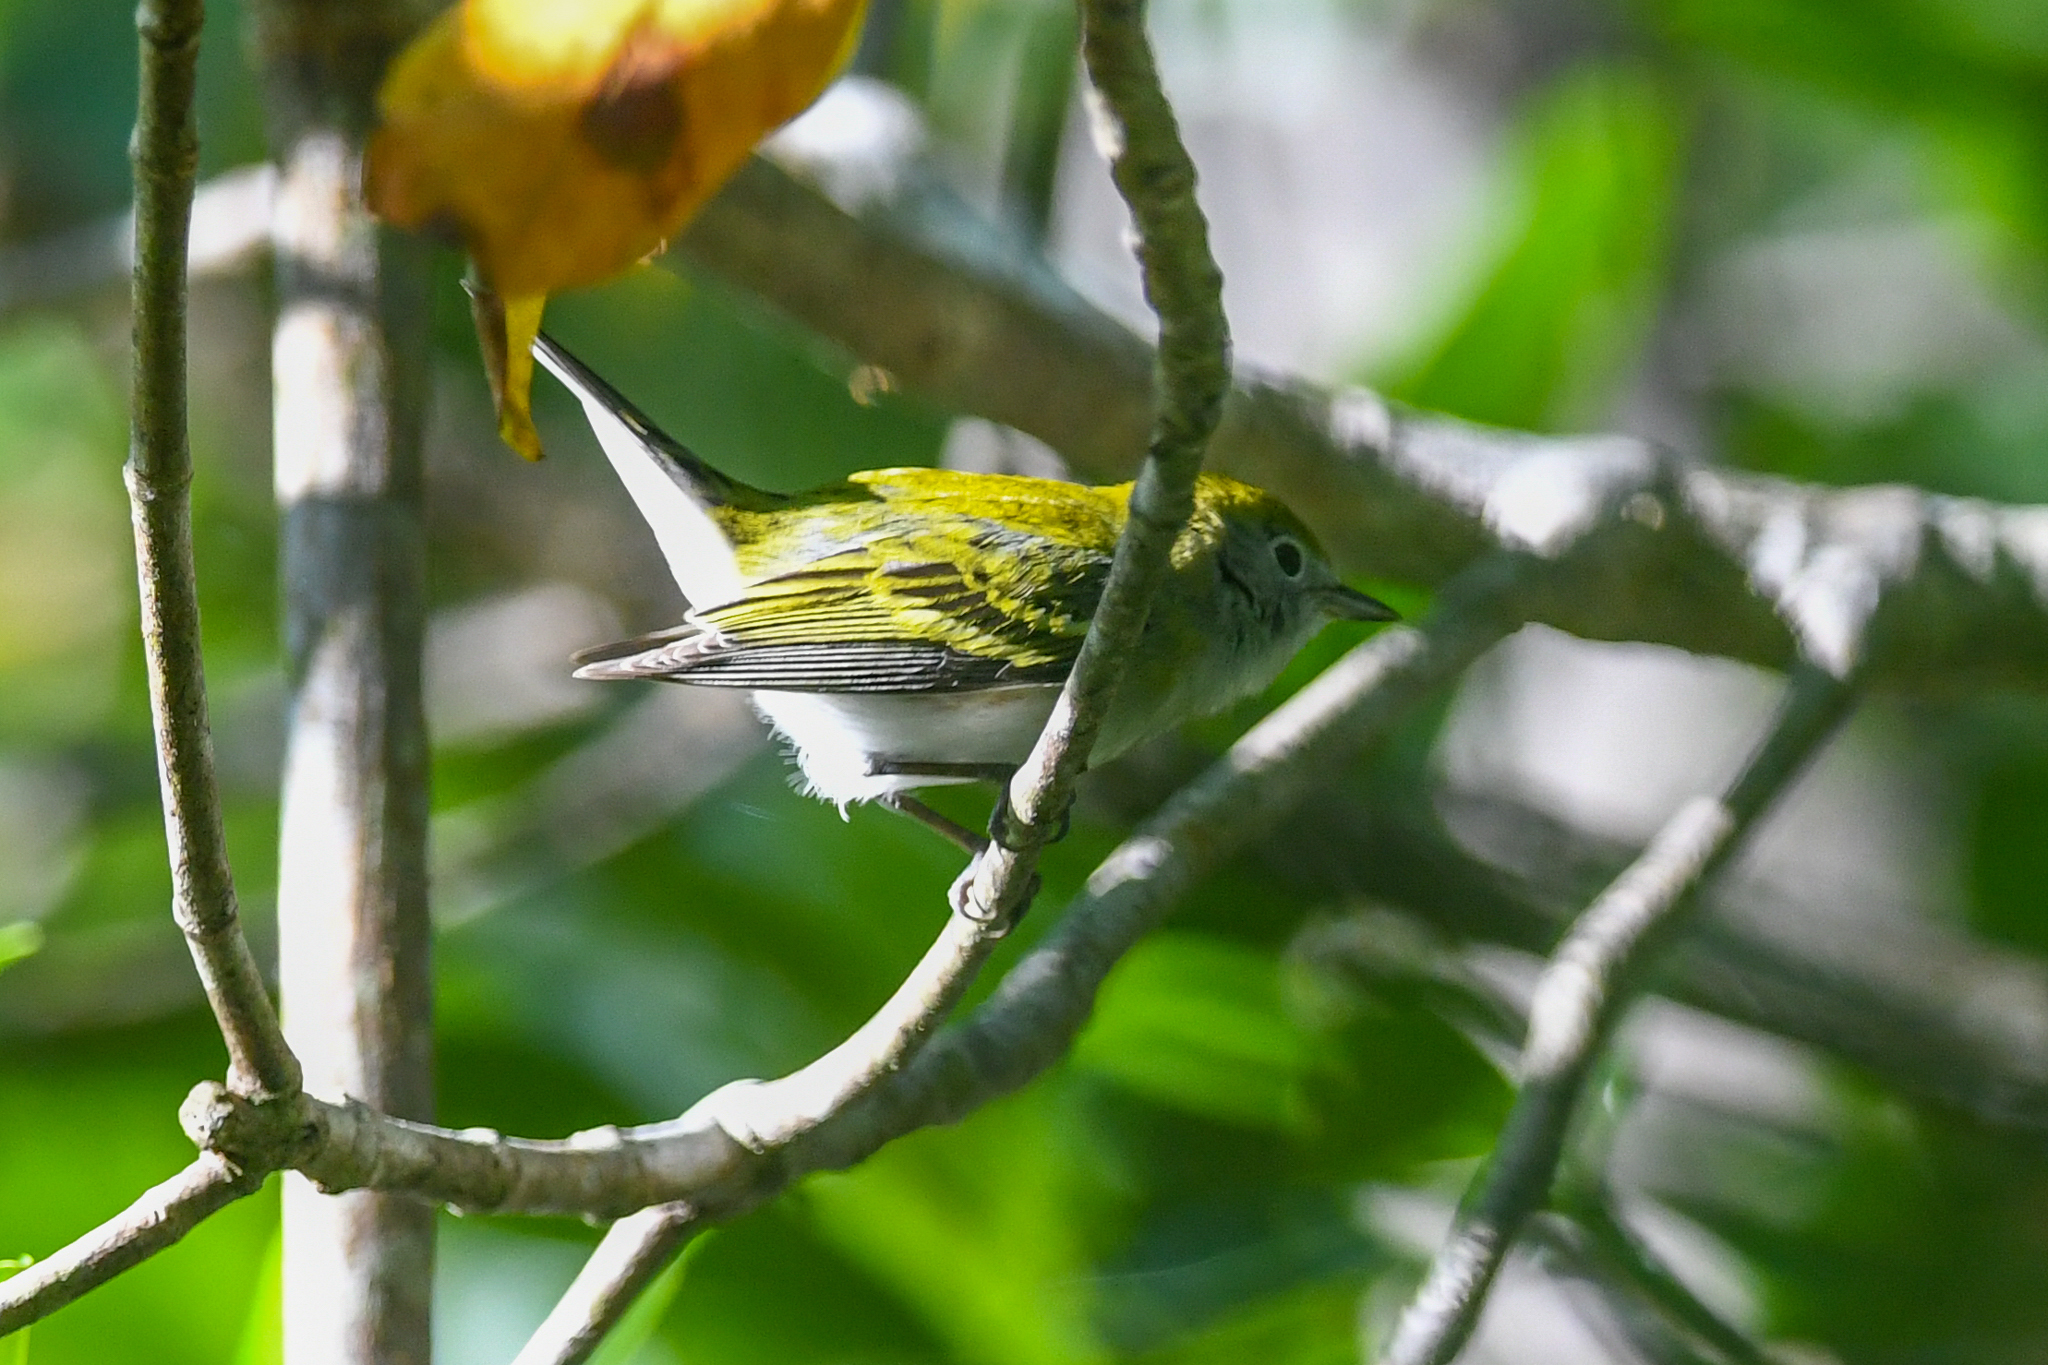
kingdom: Animalia
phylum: Chordata
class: Aves
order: Passeriformes
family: Parulidae
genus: Setophaga
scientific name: Setophaga pensylvanica
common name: Chestnut-sided warbler
